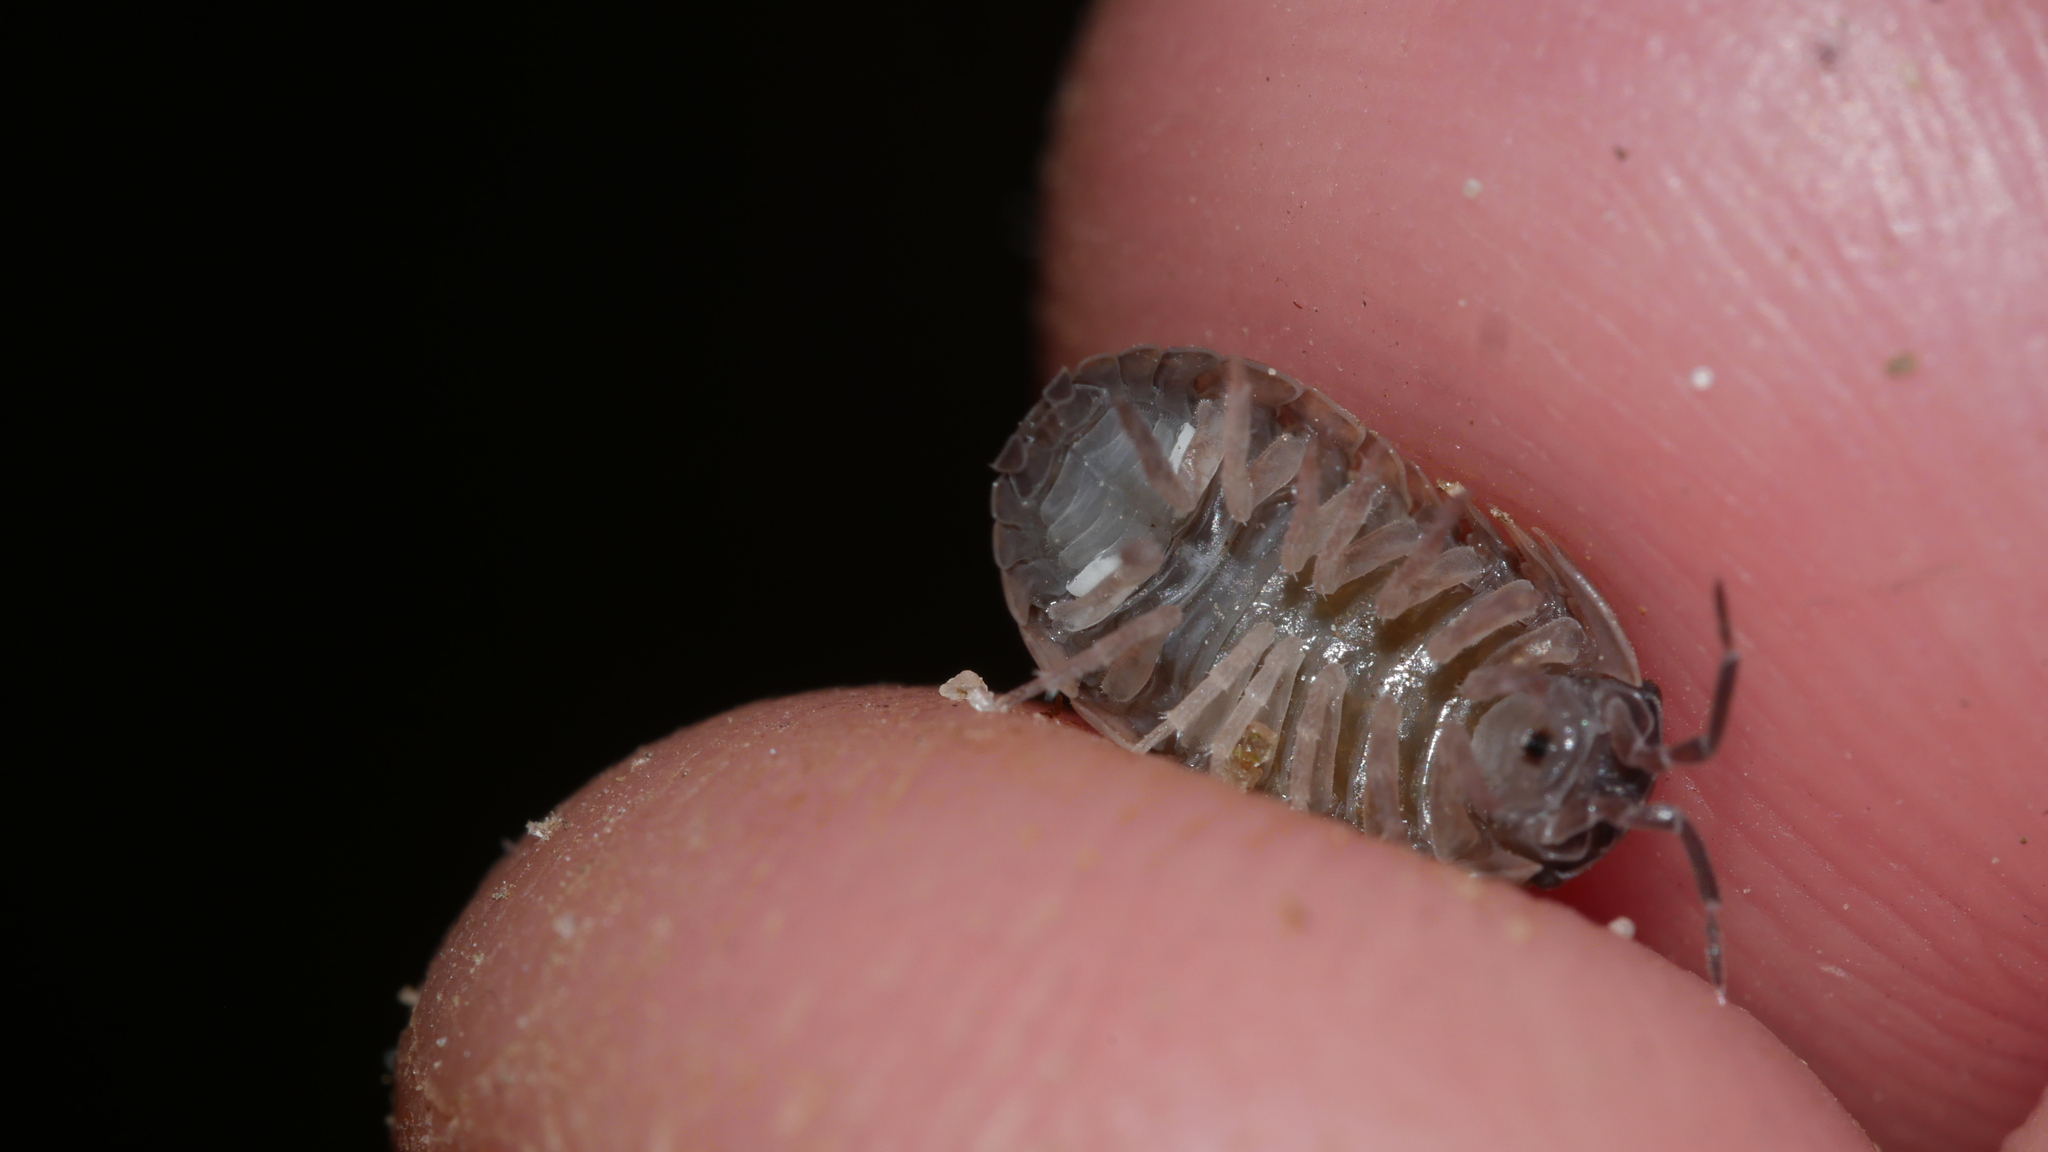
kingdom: Animalia
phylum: Arthropoda
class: Malacostraca
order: Isopoda
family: Armadillidiidae
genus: Armadillidium
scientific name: Armadillidium vulgare
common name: Common pill woodlouse
